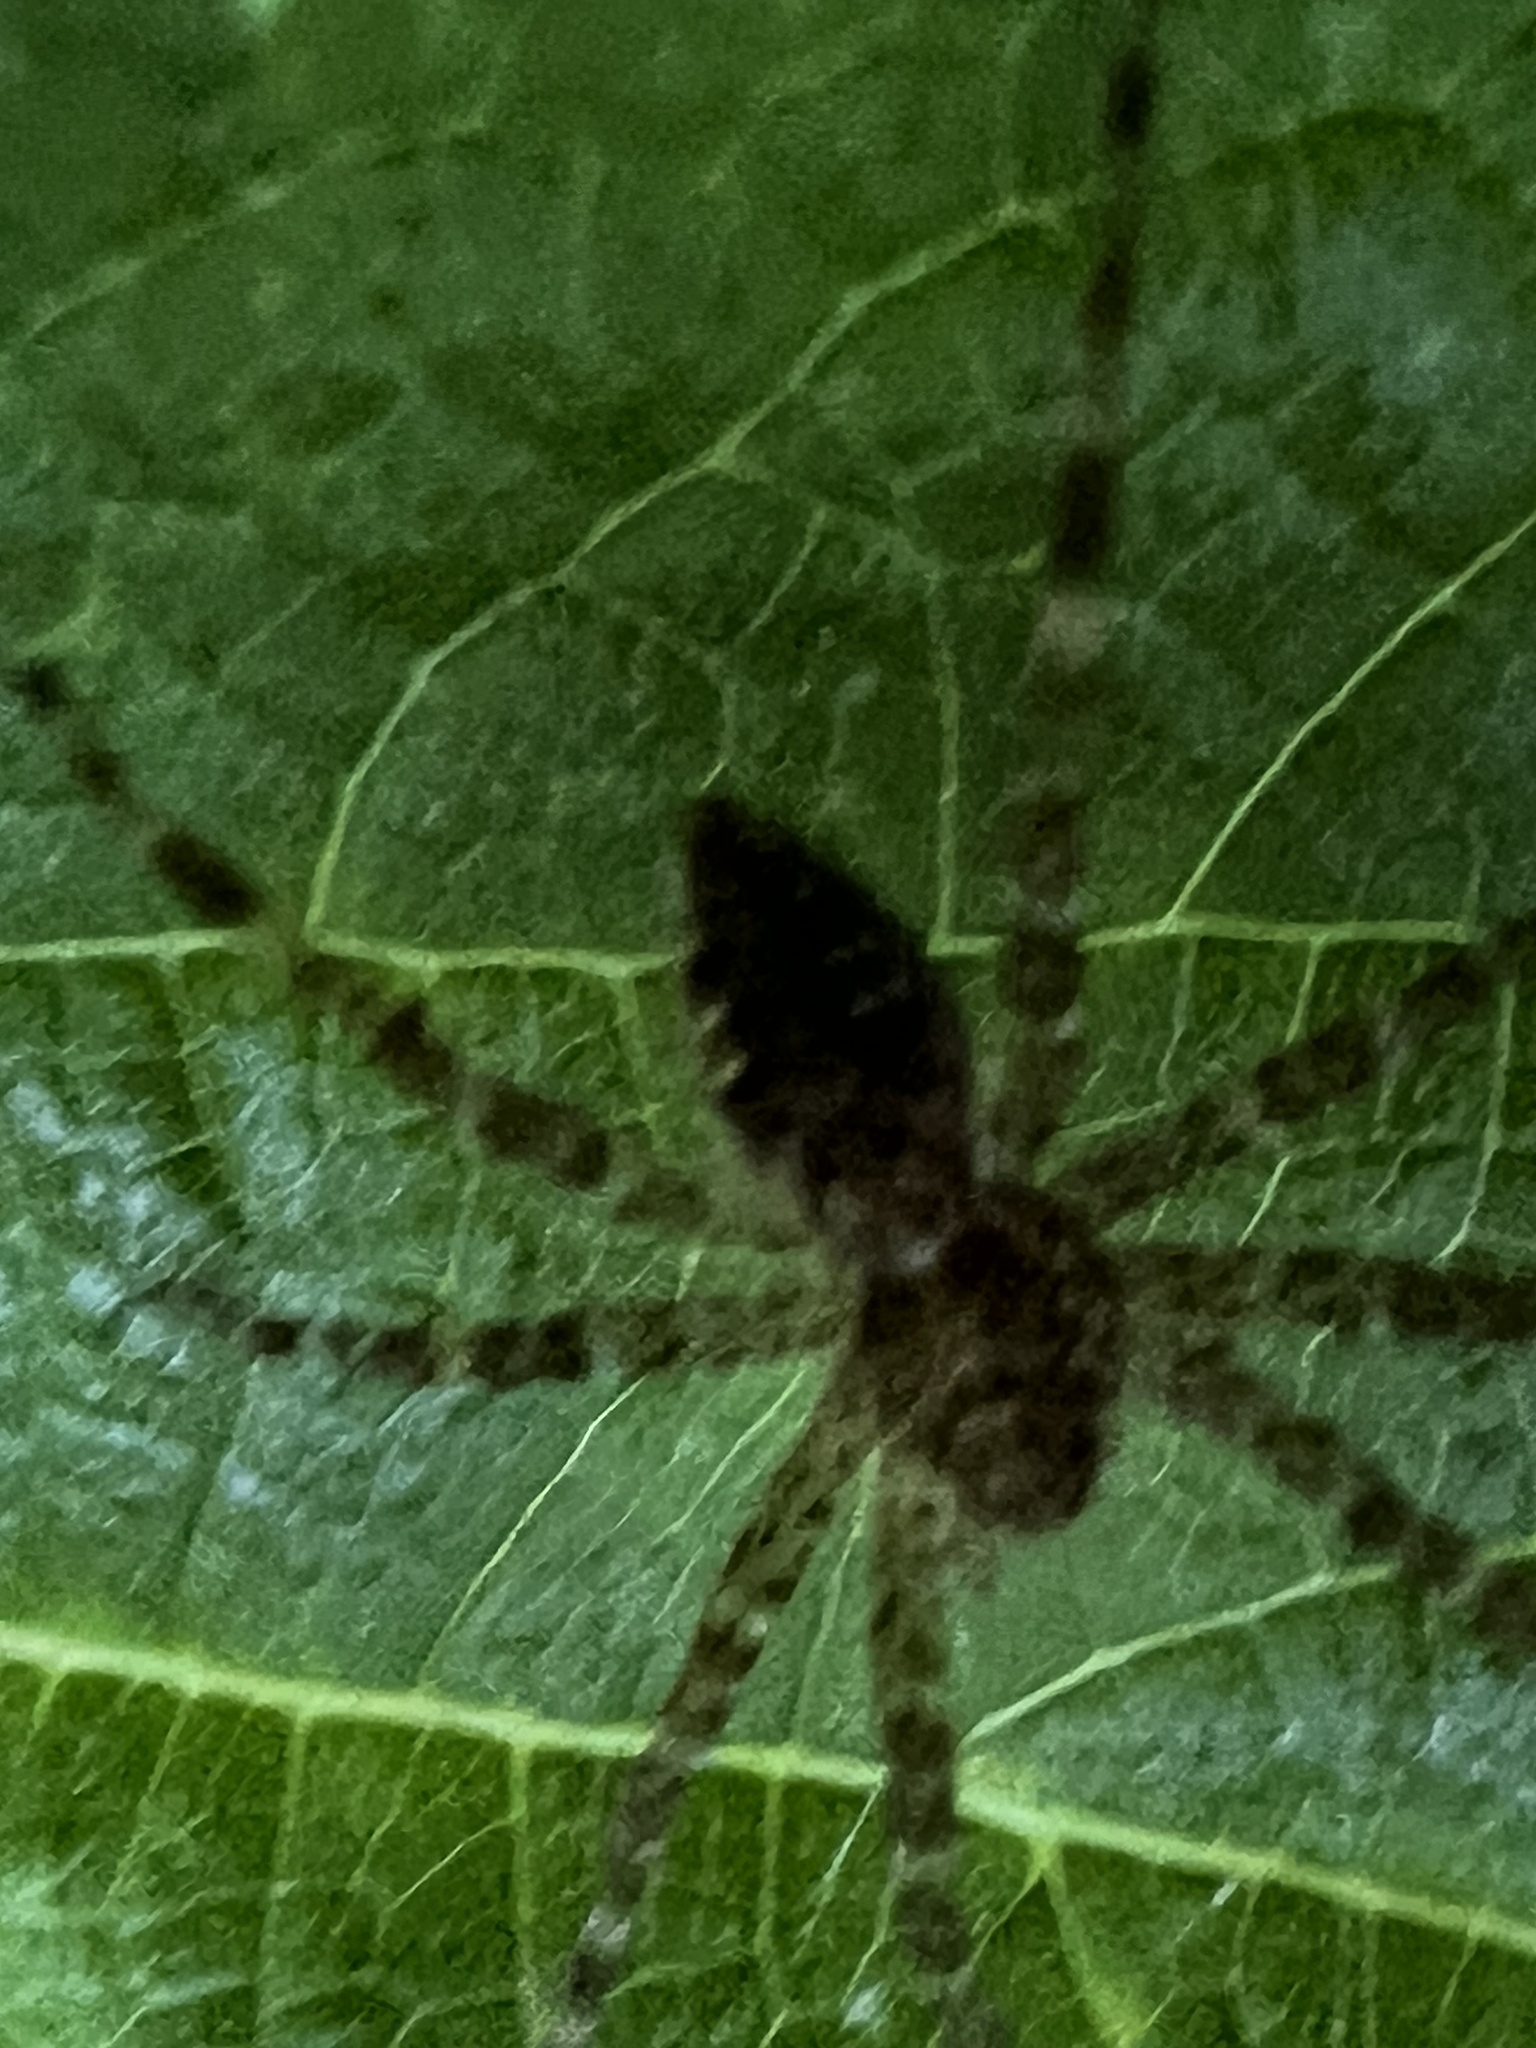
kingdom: Animalia
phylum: Arthropoda
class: Arachnida
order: Araneae
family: Pisauridae
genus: Dolomedes
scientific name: Dolomedes tenebrosus
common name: Dark fishing spider
